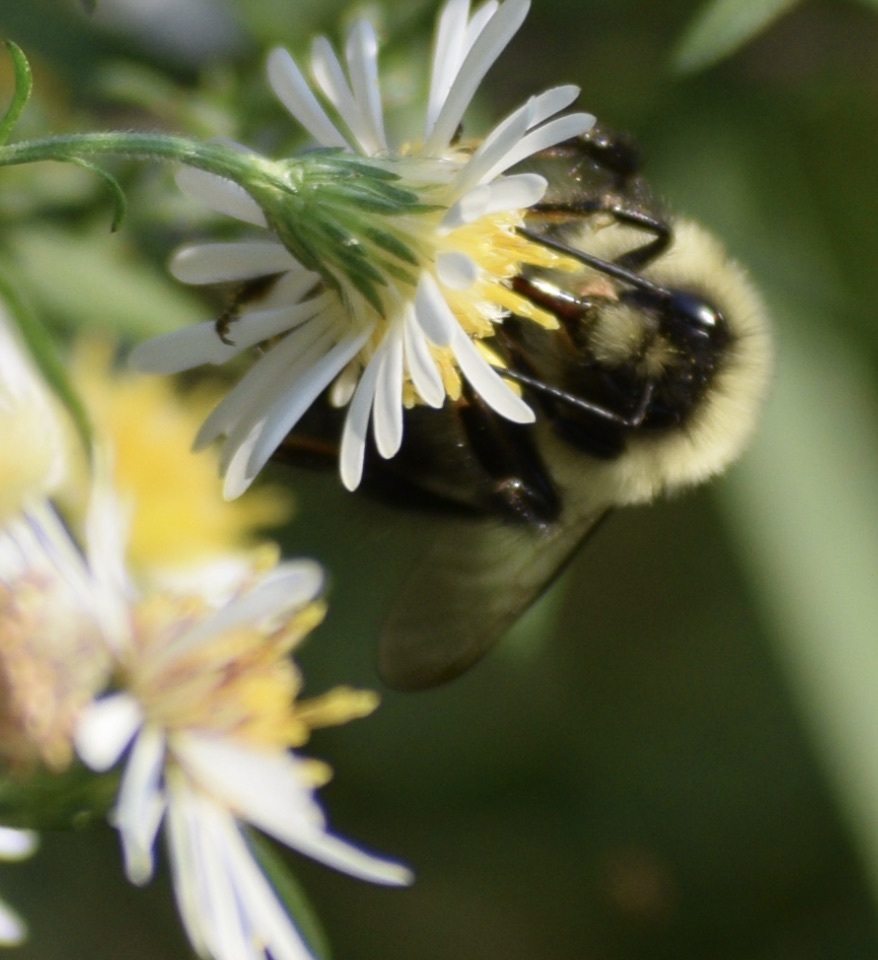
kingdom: Animalia
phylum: Arthropoda
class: Insecta
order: Hymenoptera
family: Apidae
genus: Bombus
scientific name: Bombus impatiens
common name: Common eastern bumble bee
